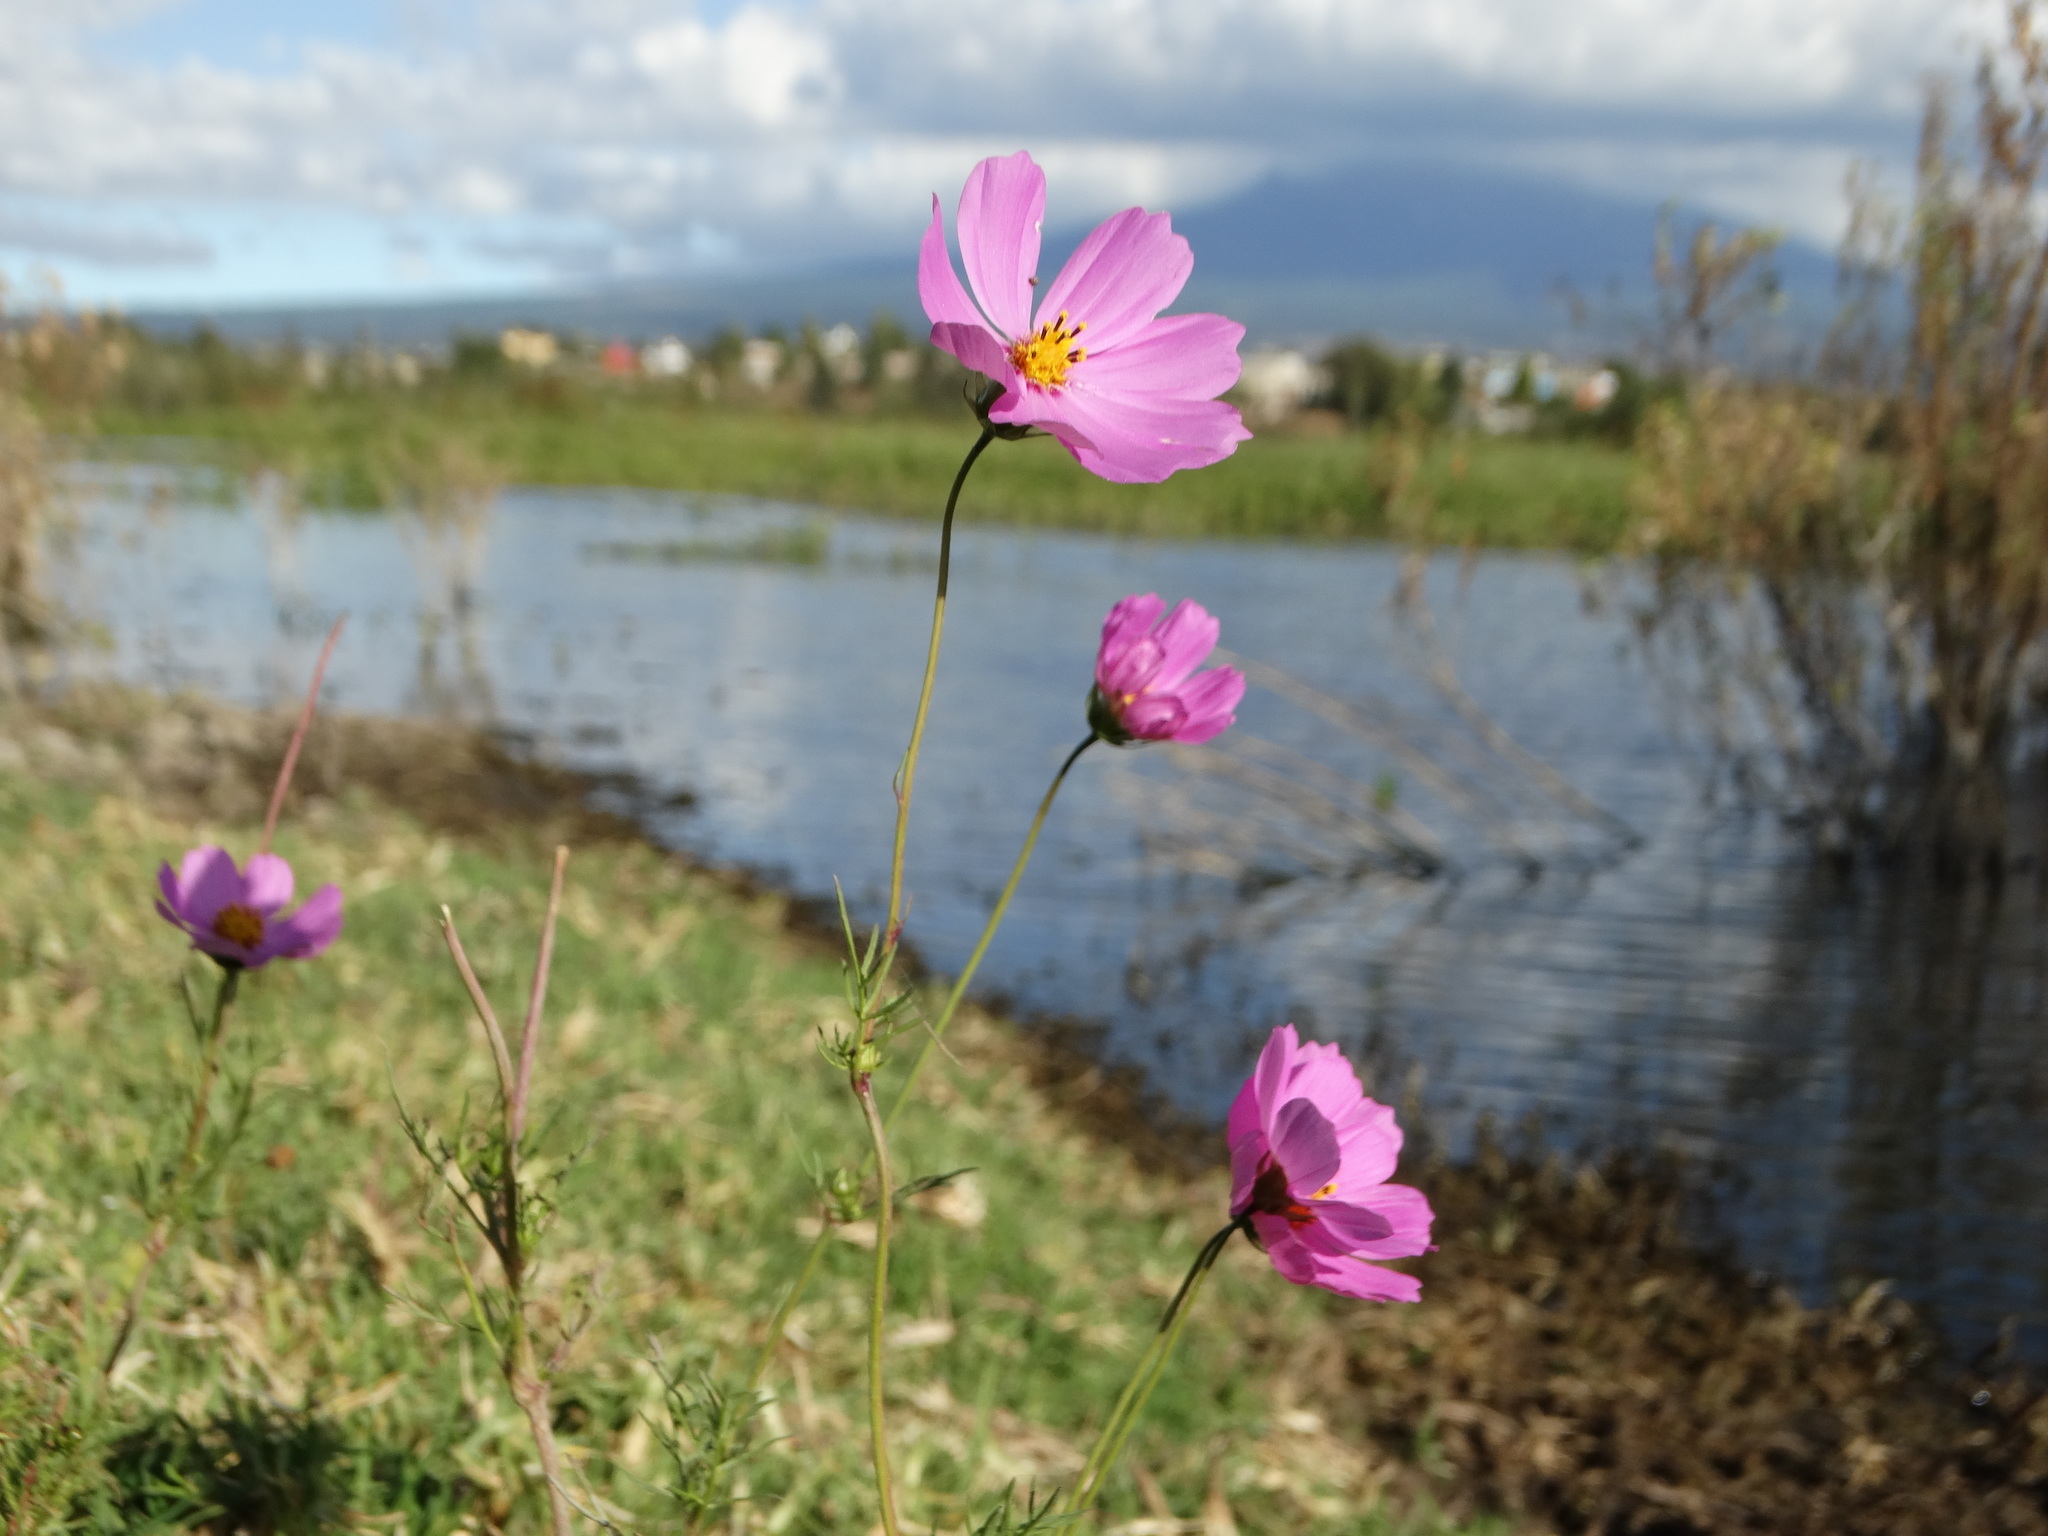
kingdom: Plantae
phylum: Tracheophyta
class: Magnoliopsida
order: Asterales
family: Asteraceae
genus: Cosmos
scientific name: Cosmos bipinnatus
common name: Garden cosmos
